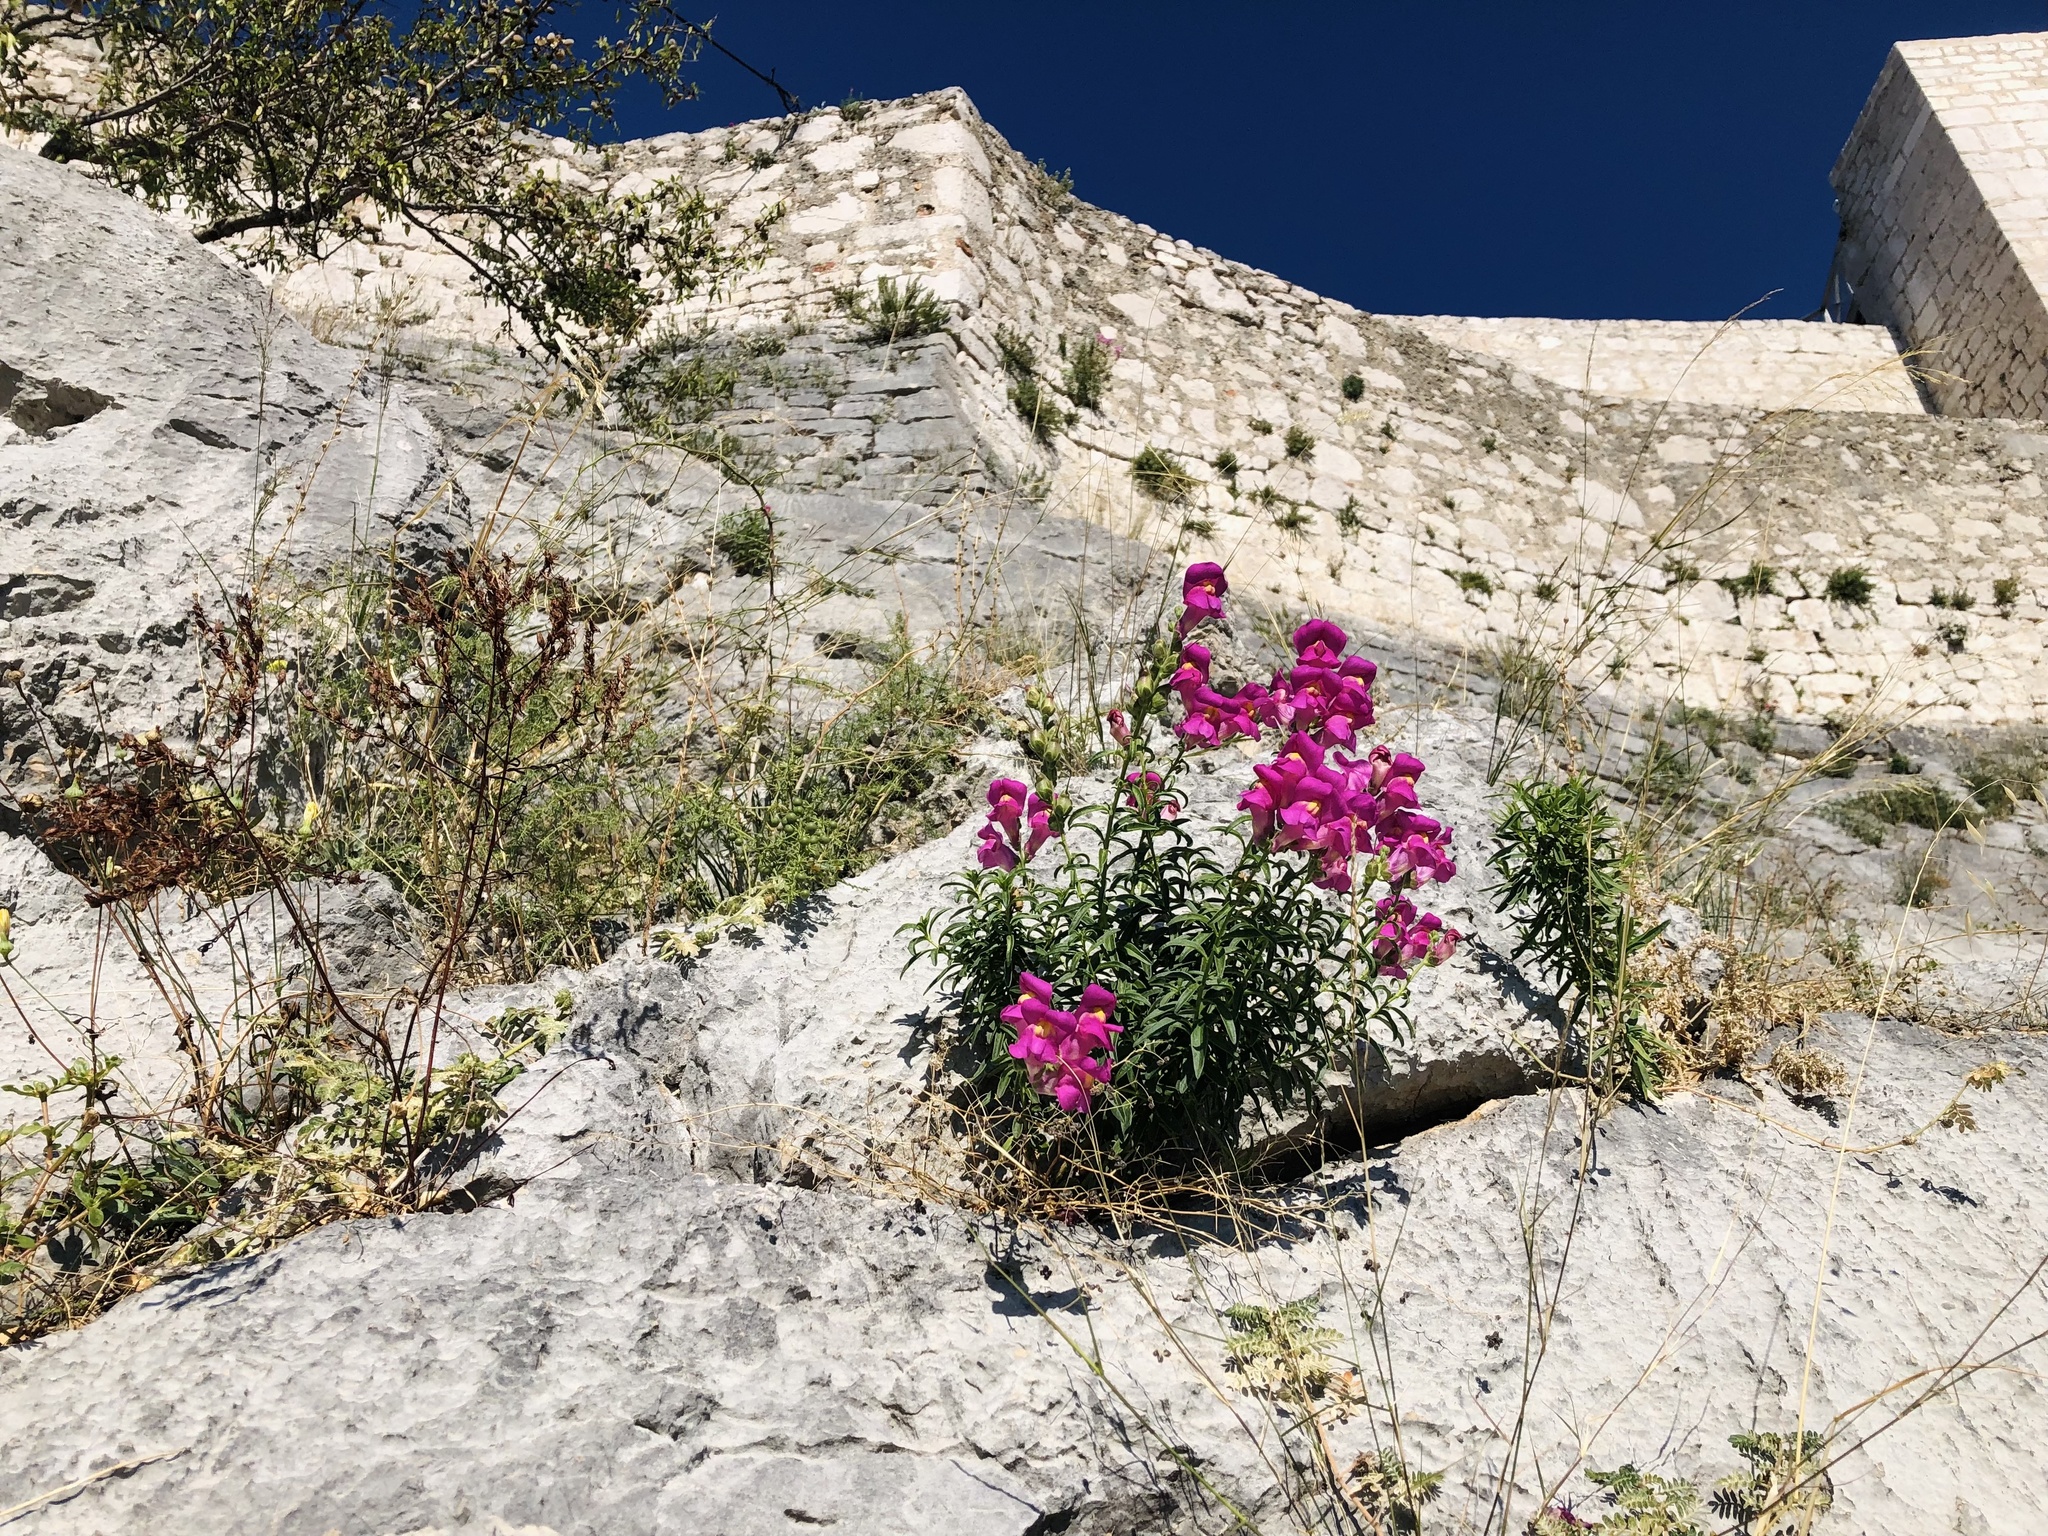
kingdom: Plantae
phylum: Tracheophyta
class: Magnoliopsida
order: Lamiales
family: Plantaginaceae
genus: Antirrhinum
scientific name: Antirrhinum majus
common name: Snapdragon
